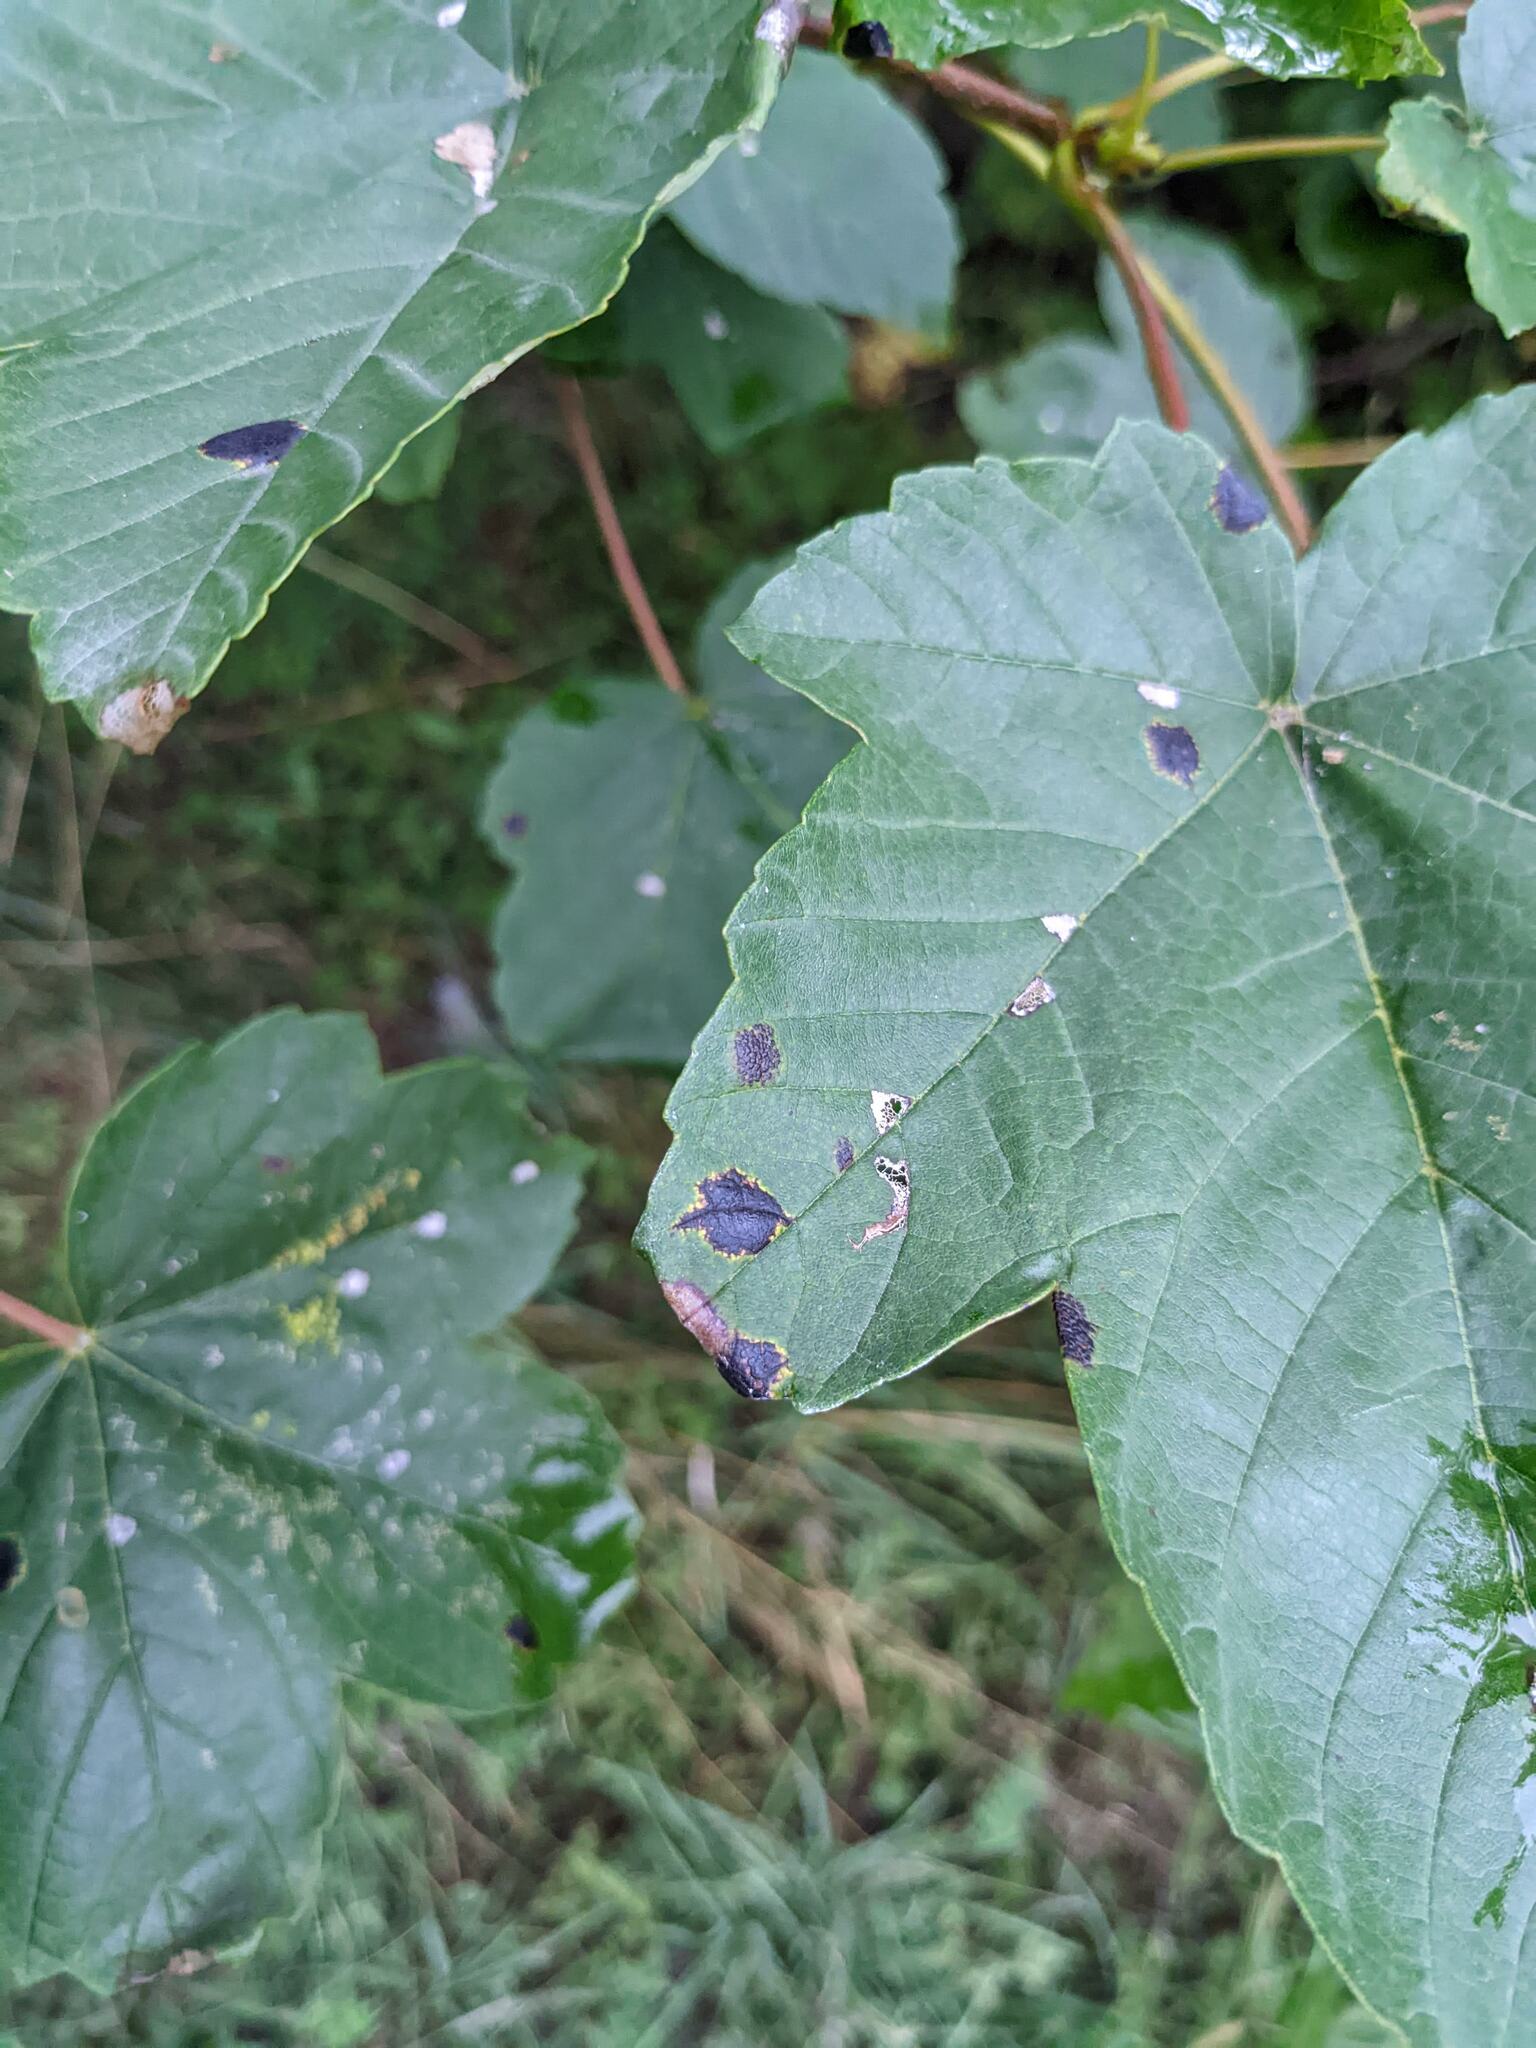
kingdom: Fungi
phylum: Ascomycota
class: Leotiomycetes
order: Rhytismatales
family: Rhytismataceae
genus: Rhytisma
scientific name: Rhytisma acerinum
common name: European tar spot
